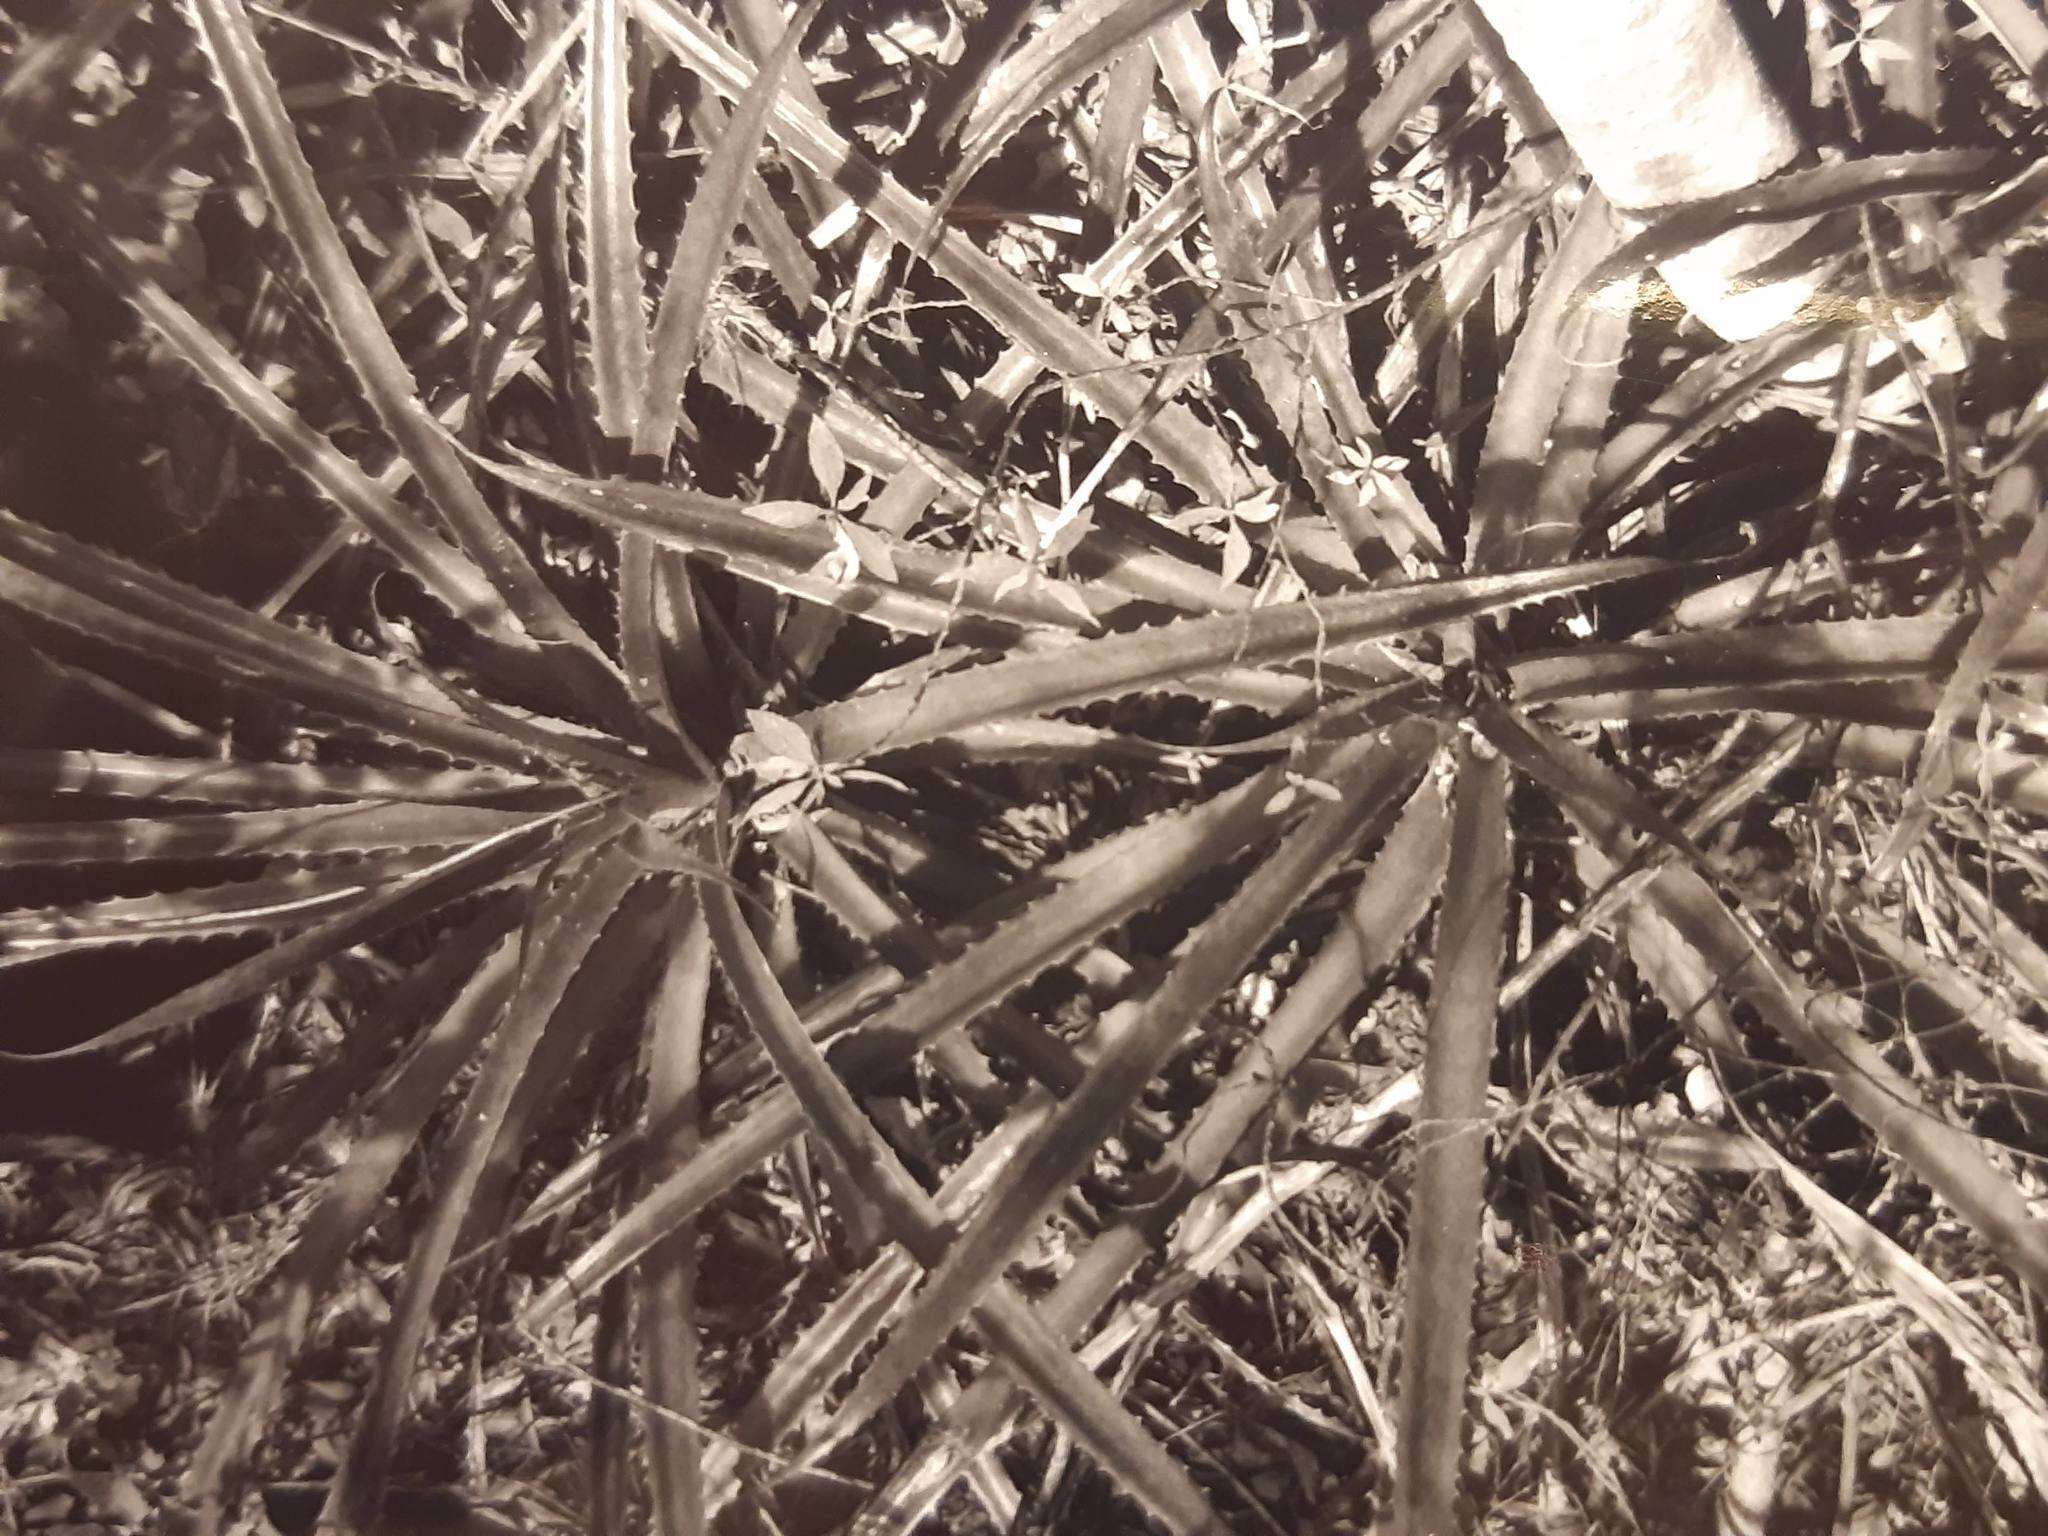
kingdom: Plantae
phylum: Tracheophyta
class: Liliopsida
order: Poales
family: Bromeliaceae
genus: Bromelia
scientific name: Bromelia pinguin
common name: Pinguin
